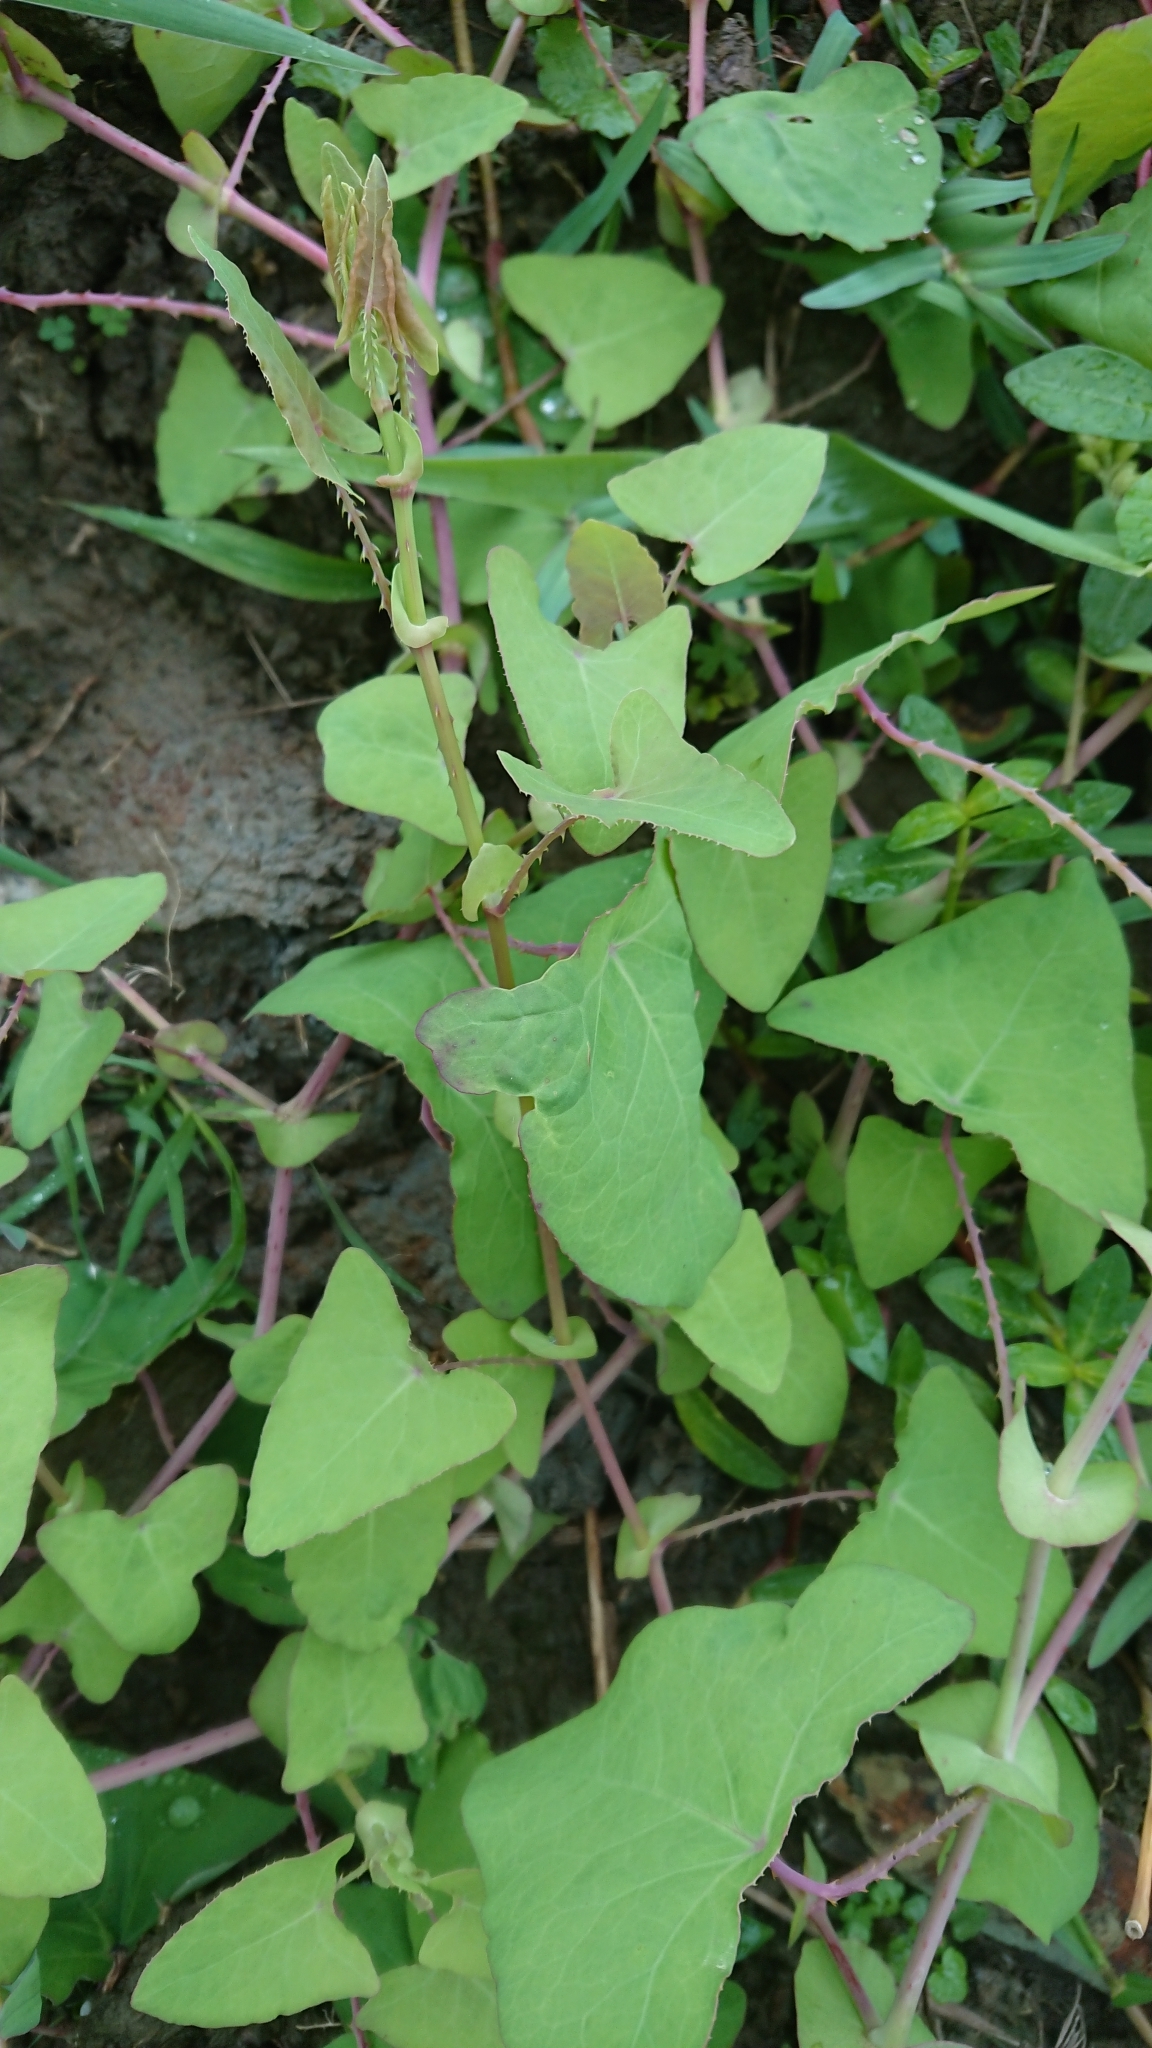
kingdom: Plantae
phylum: Tracheophyta
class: Magnoliopsida
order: Caryophyllales
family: Polygonaceae
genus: Persicaria
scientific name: Persicaria perfoliata
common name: Asiatic tearthumb
